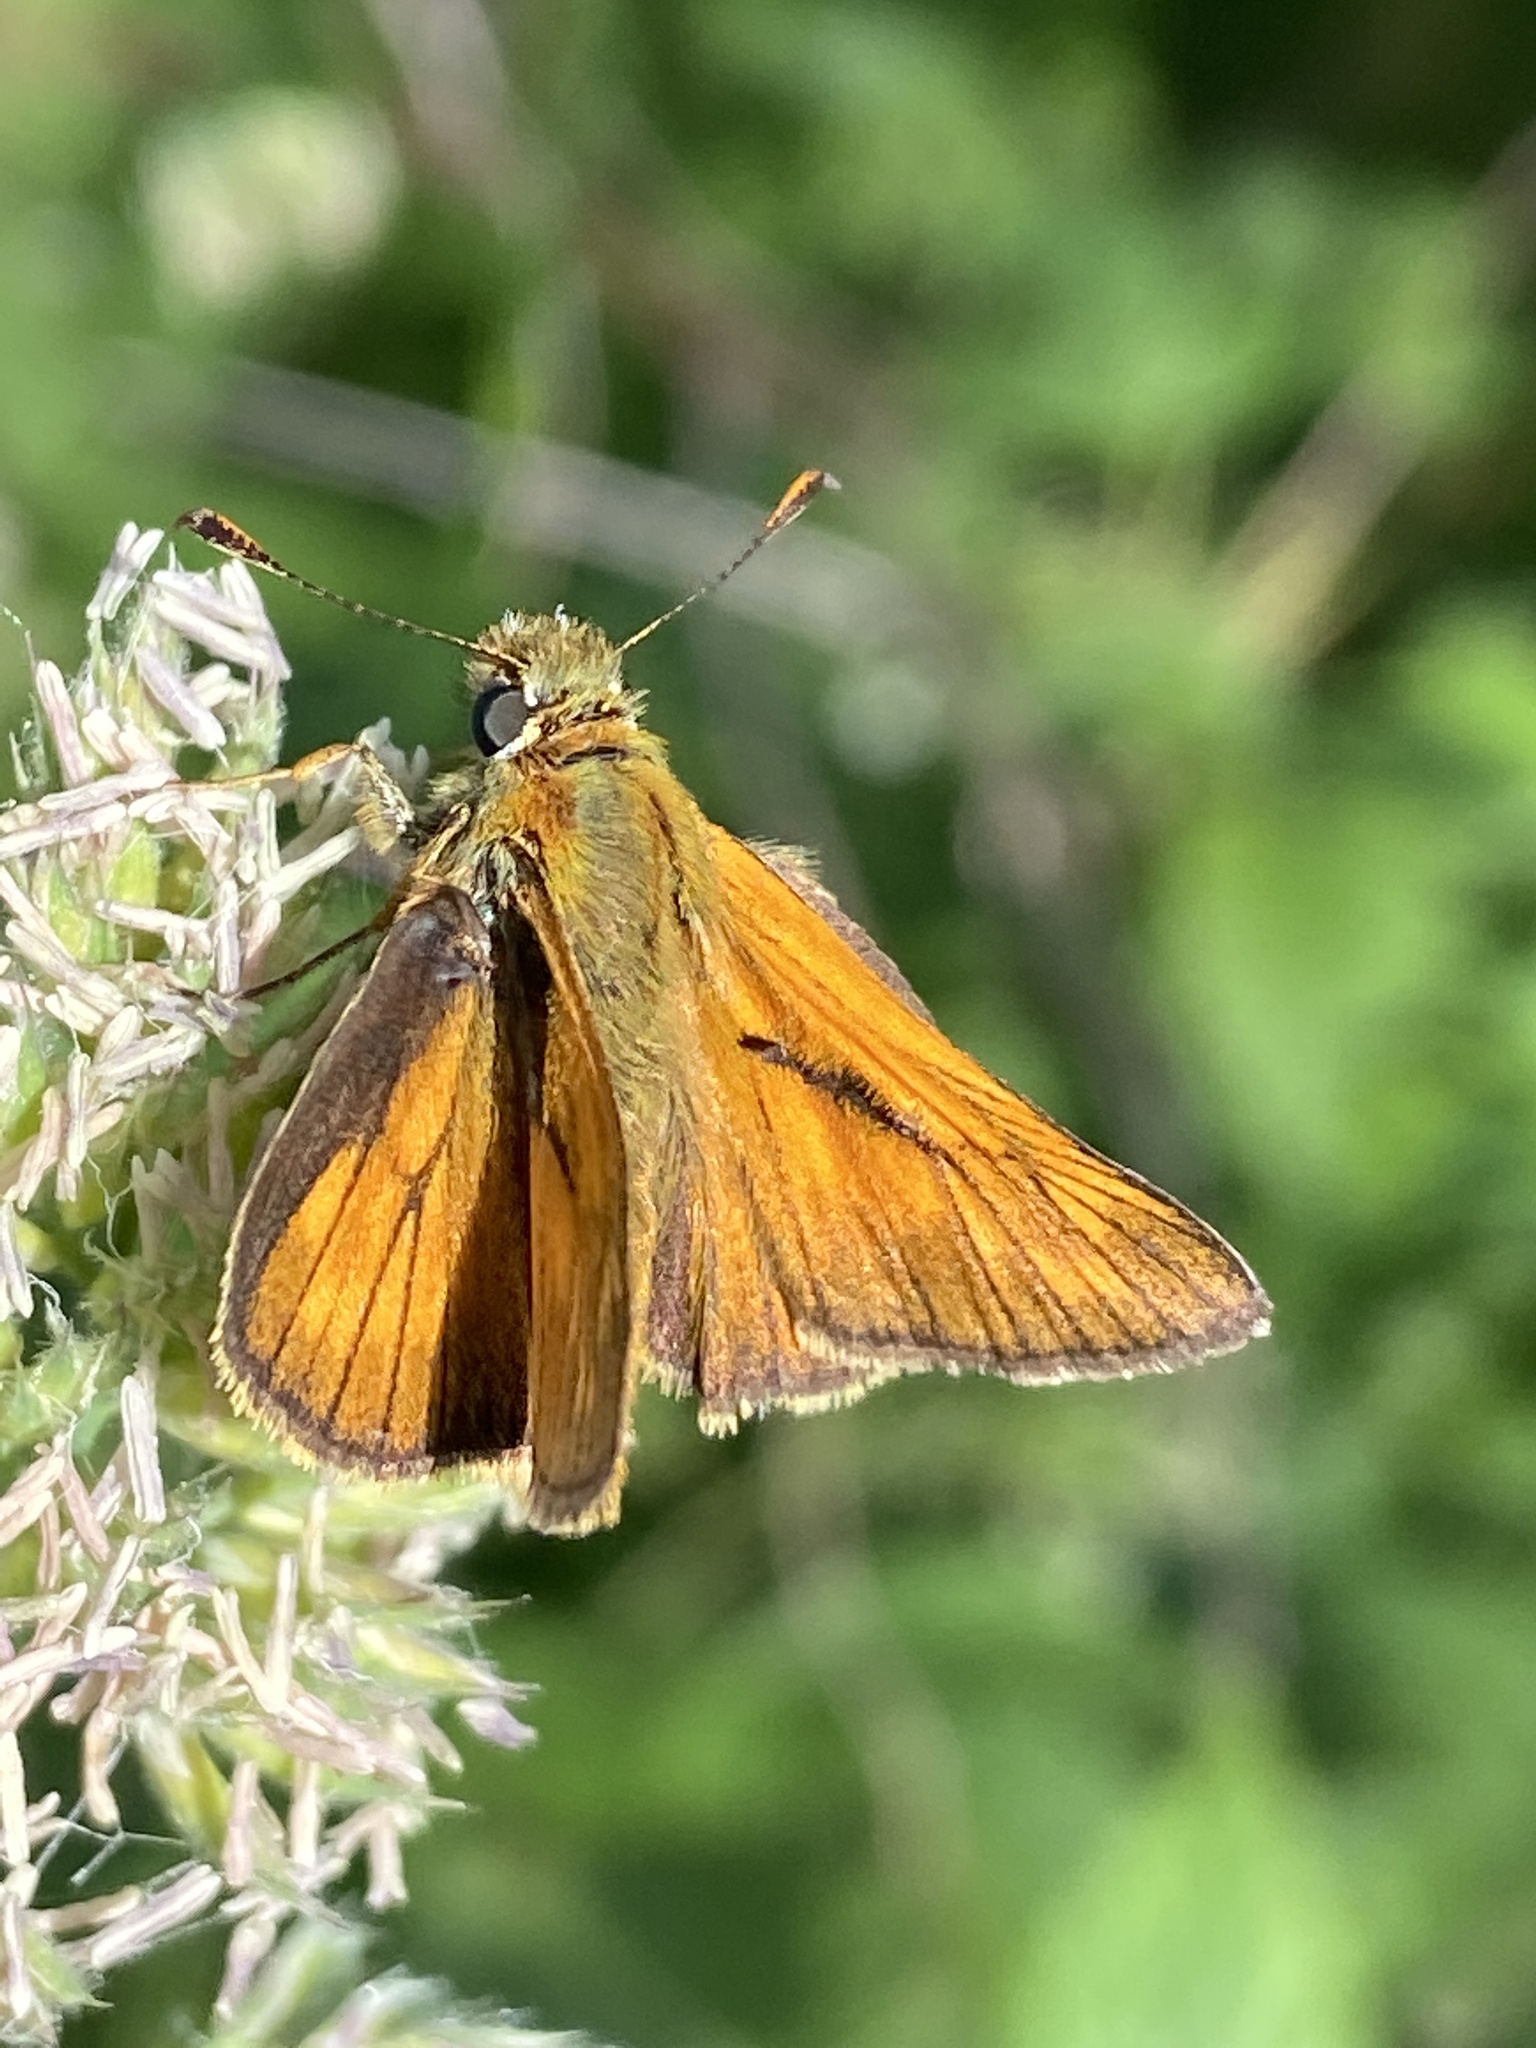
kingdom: Animalia
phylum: Arthropoda
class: Insecta
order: Lepidoptera
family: Hesperiidae
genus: Ochlodes
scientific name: Ochlodes venata
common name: Large skipper
